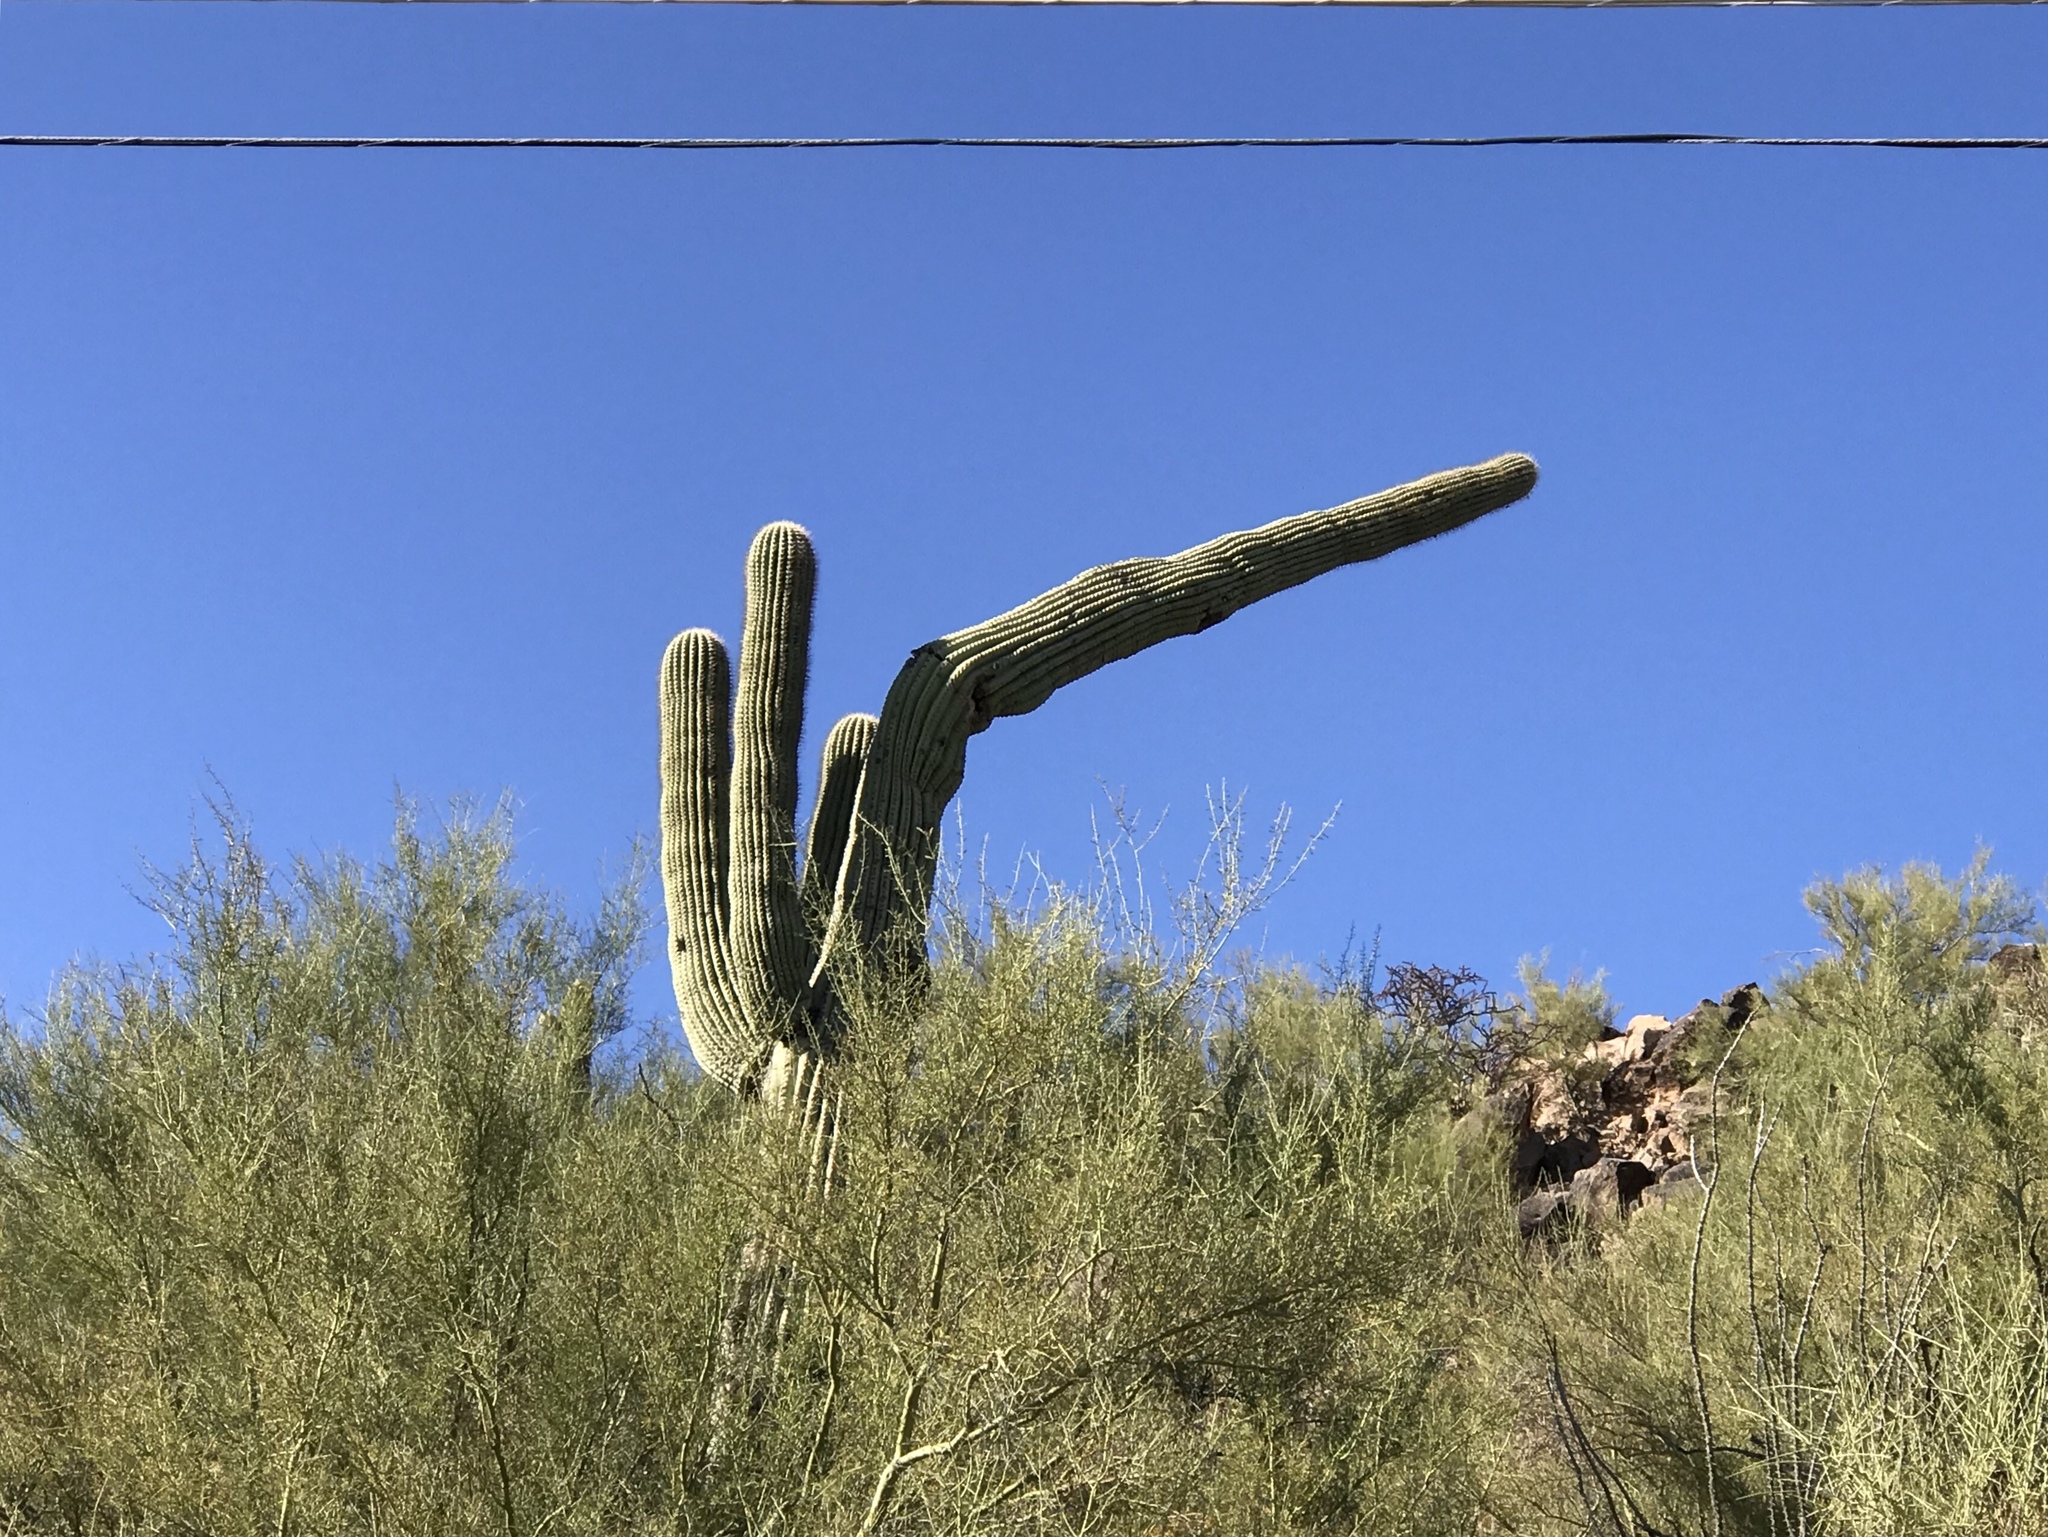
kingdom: Plantae
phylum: Tracheophyta
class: Magnoliopsida
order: Caryophyllales
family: Cactaceae
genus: Carnegiea
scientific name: Carnegiea gigantea
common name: Saguaro
